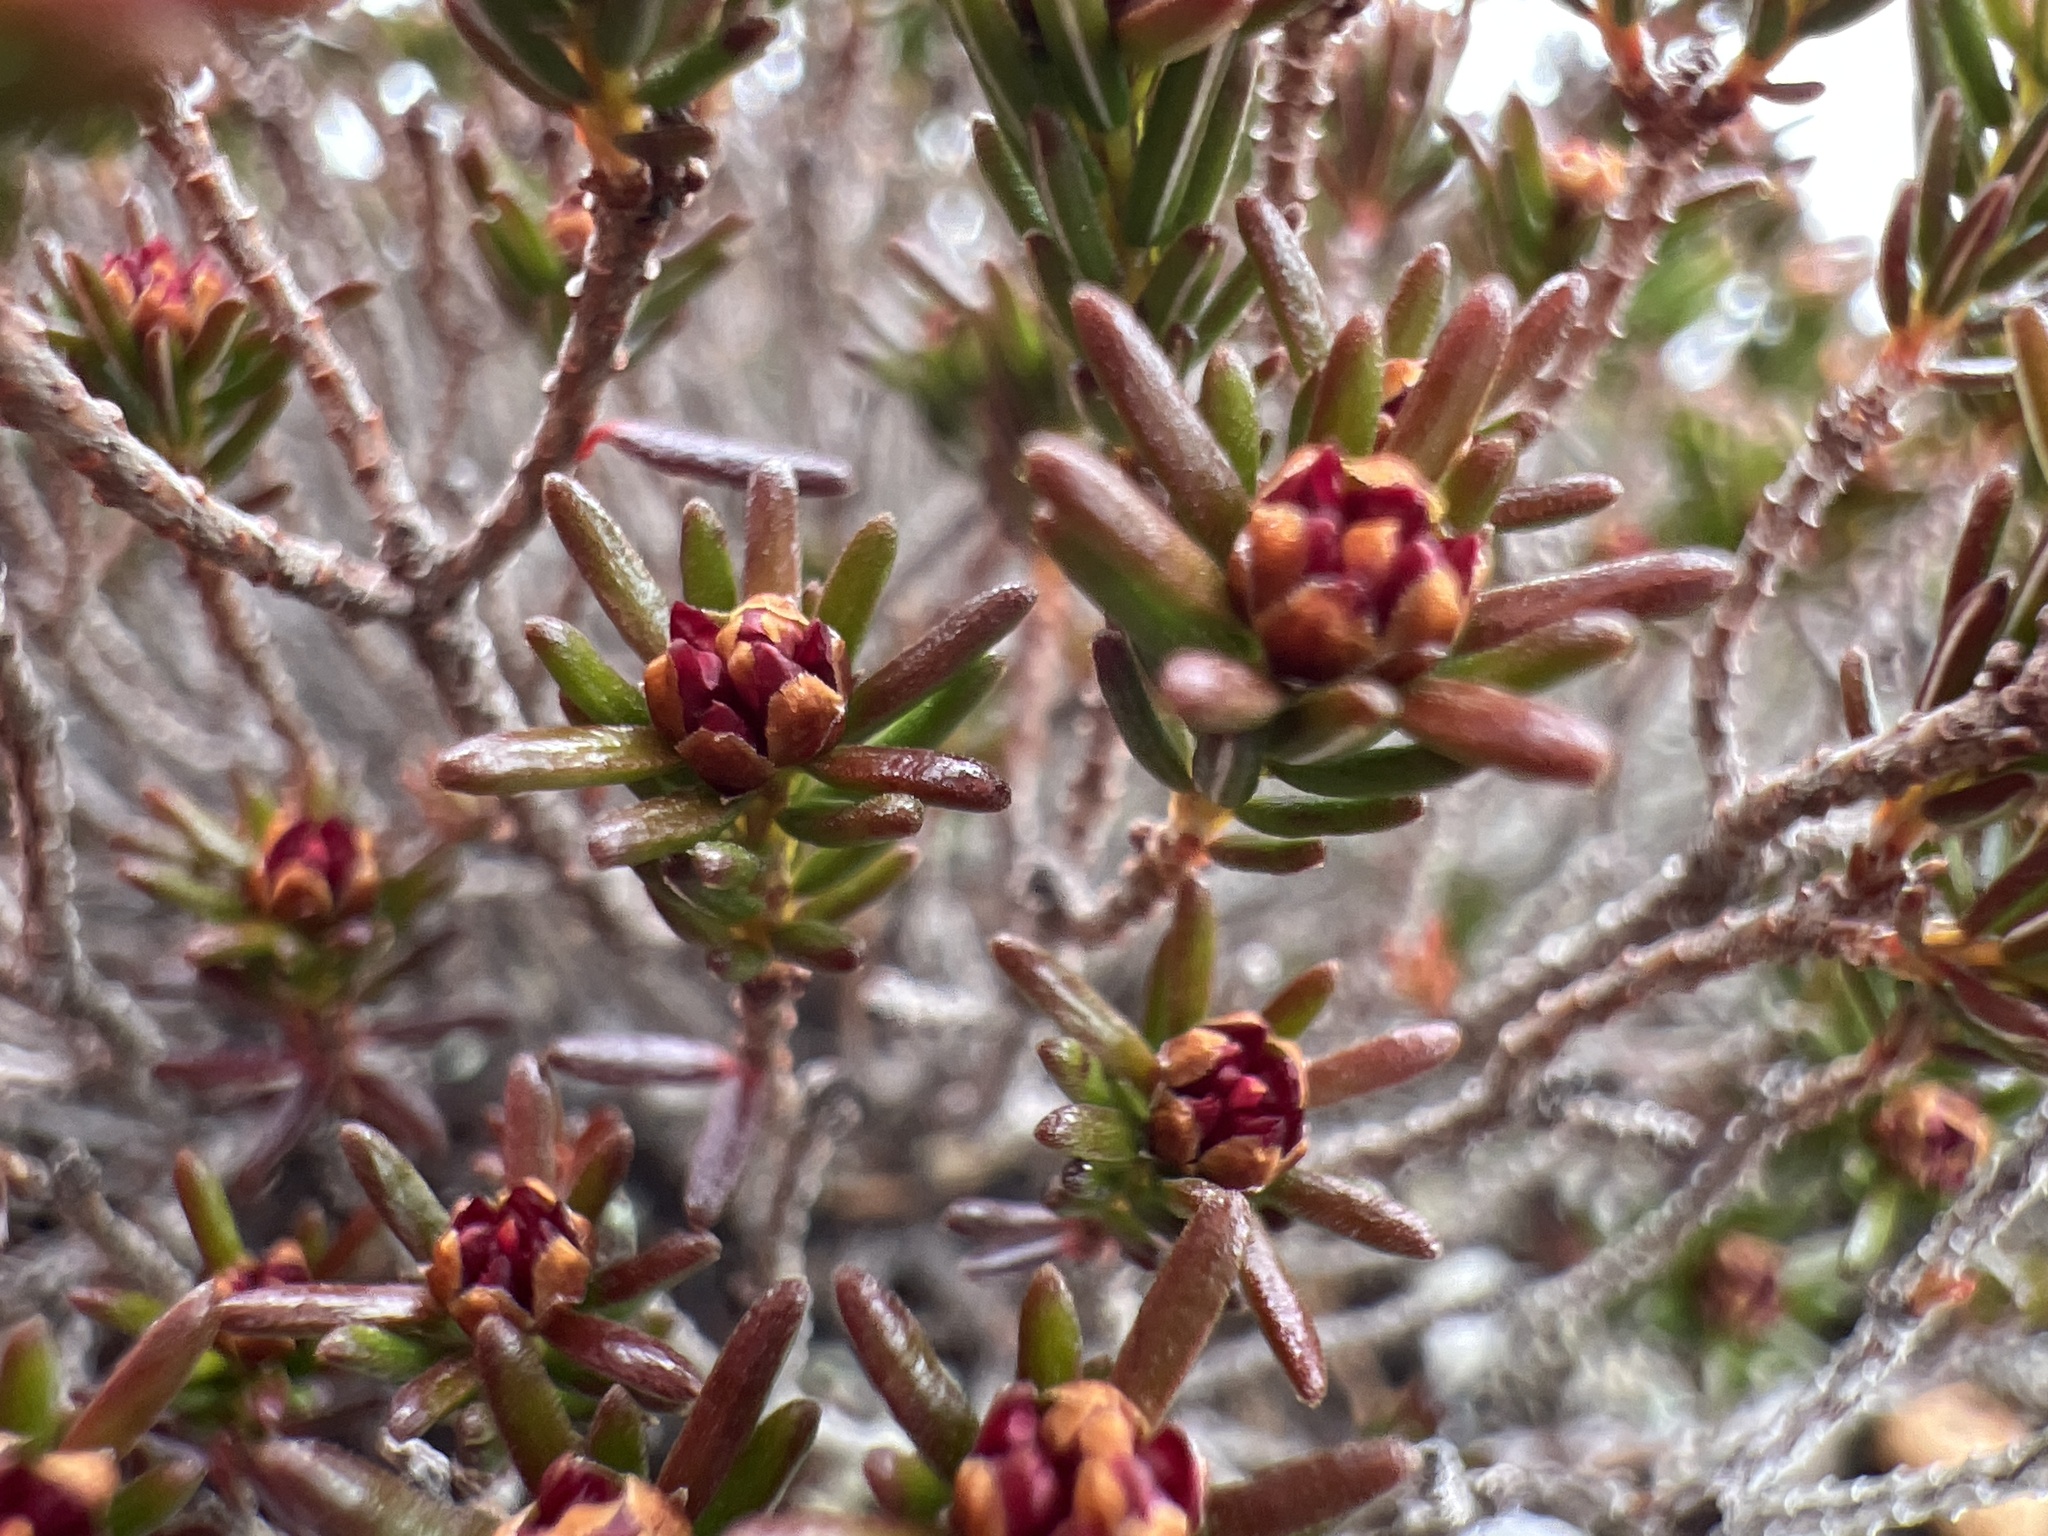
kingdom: Plantae
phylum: Tracheophyta
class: Magnoliopsida
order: Ericales
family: Ericaceae
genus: Corema
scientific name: Corema conradii
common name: Broom-crowberry
